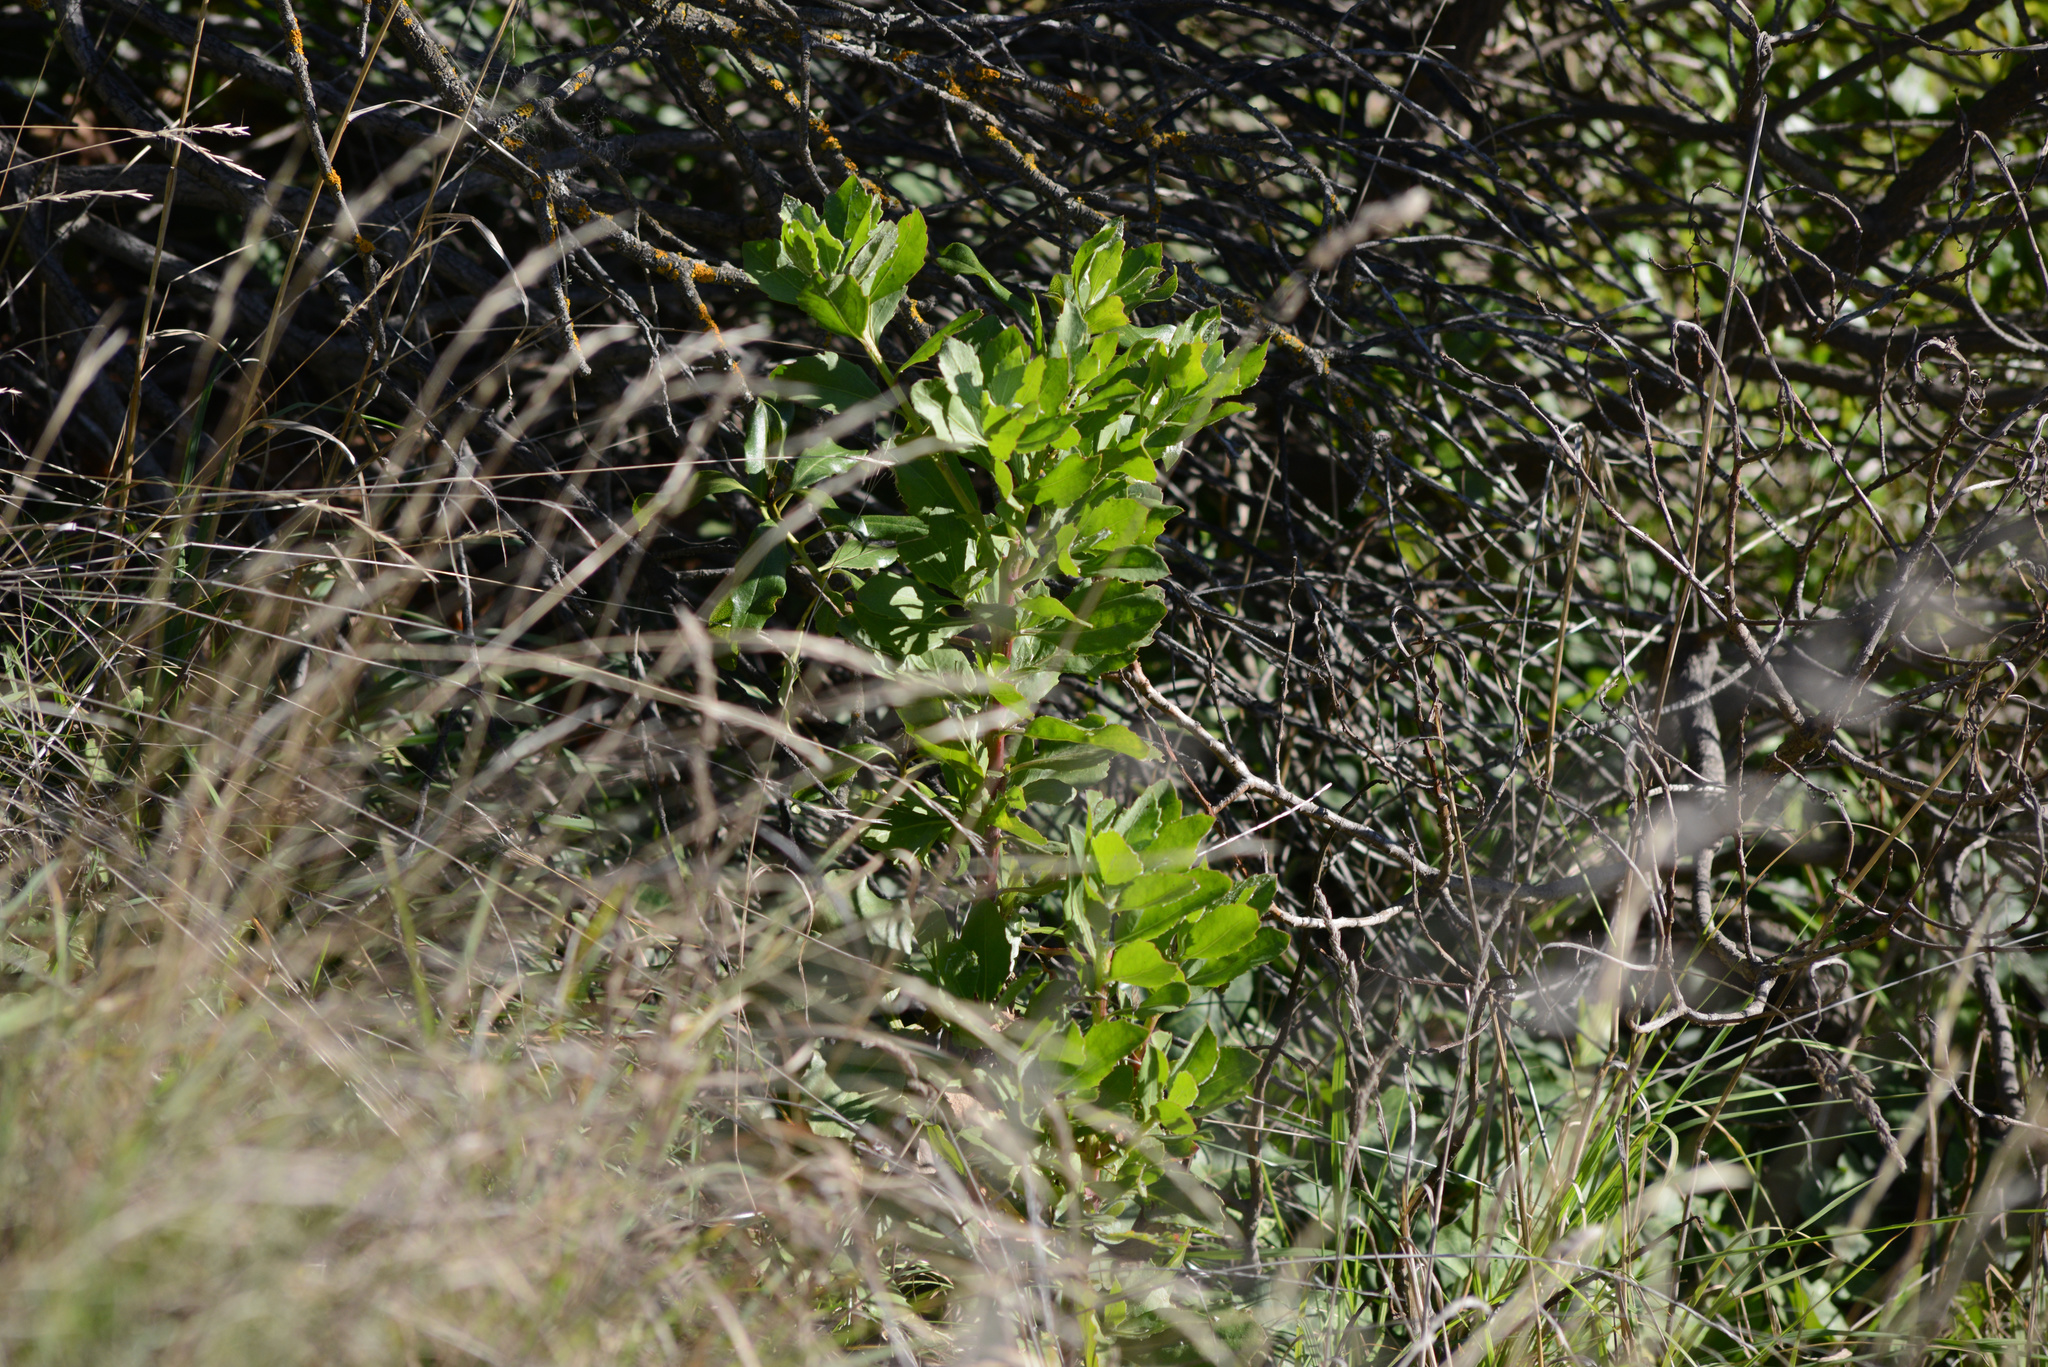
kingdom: Plantae
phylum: Tracheophyta
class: Magnoliopsida
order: Asterales
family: Asteraceae
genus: Osteospermum
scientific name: Osteospermum moniliferum
